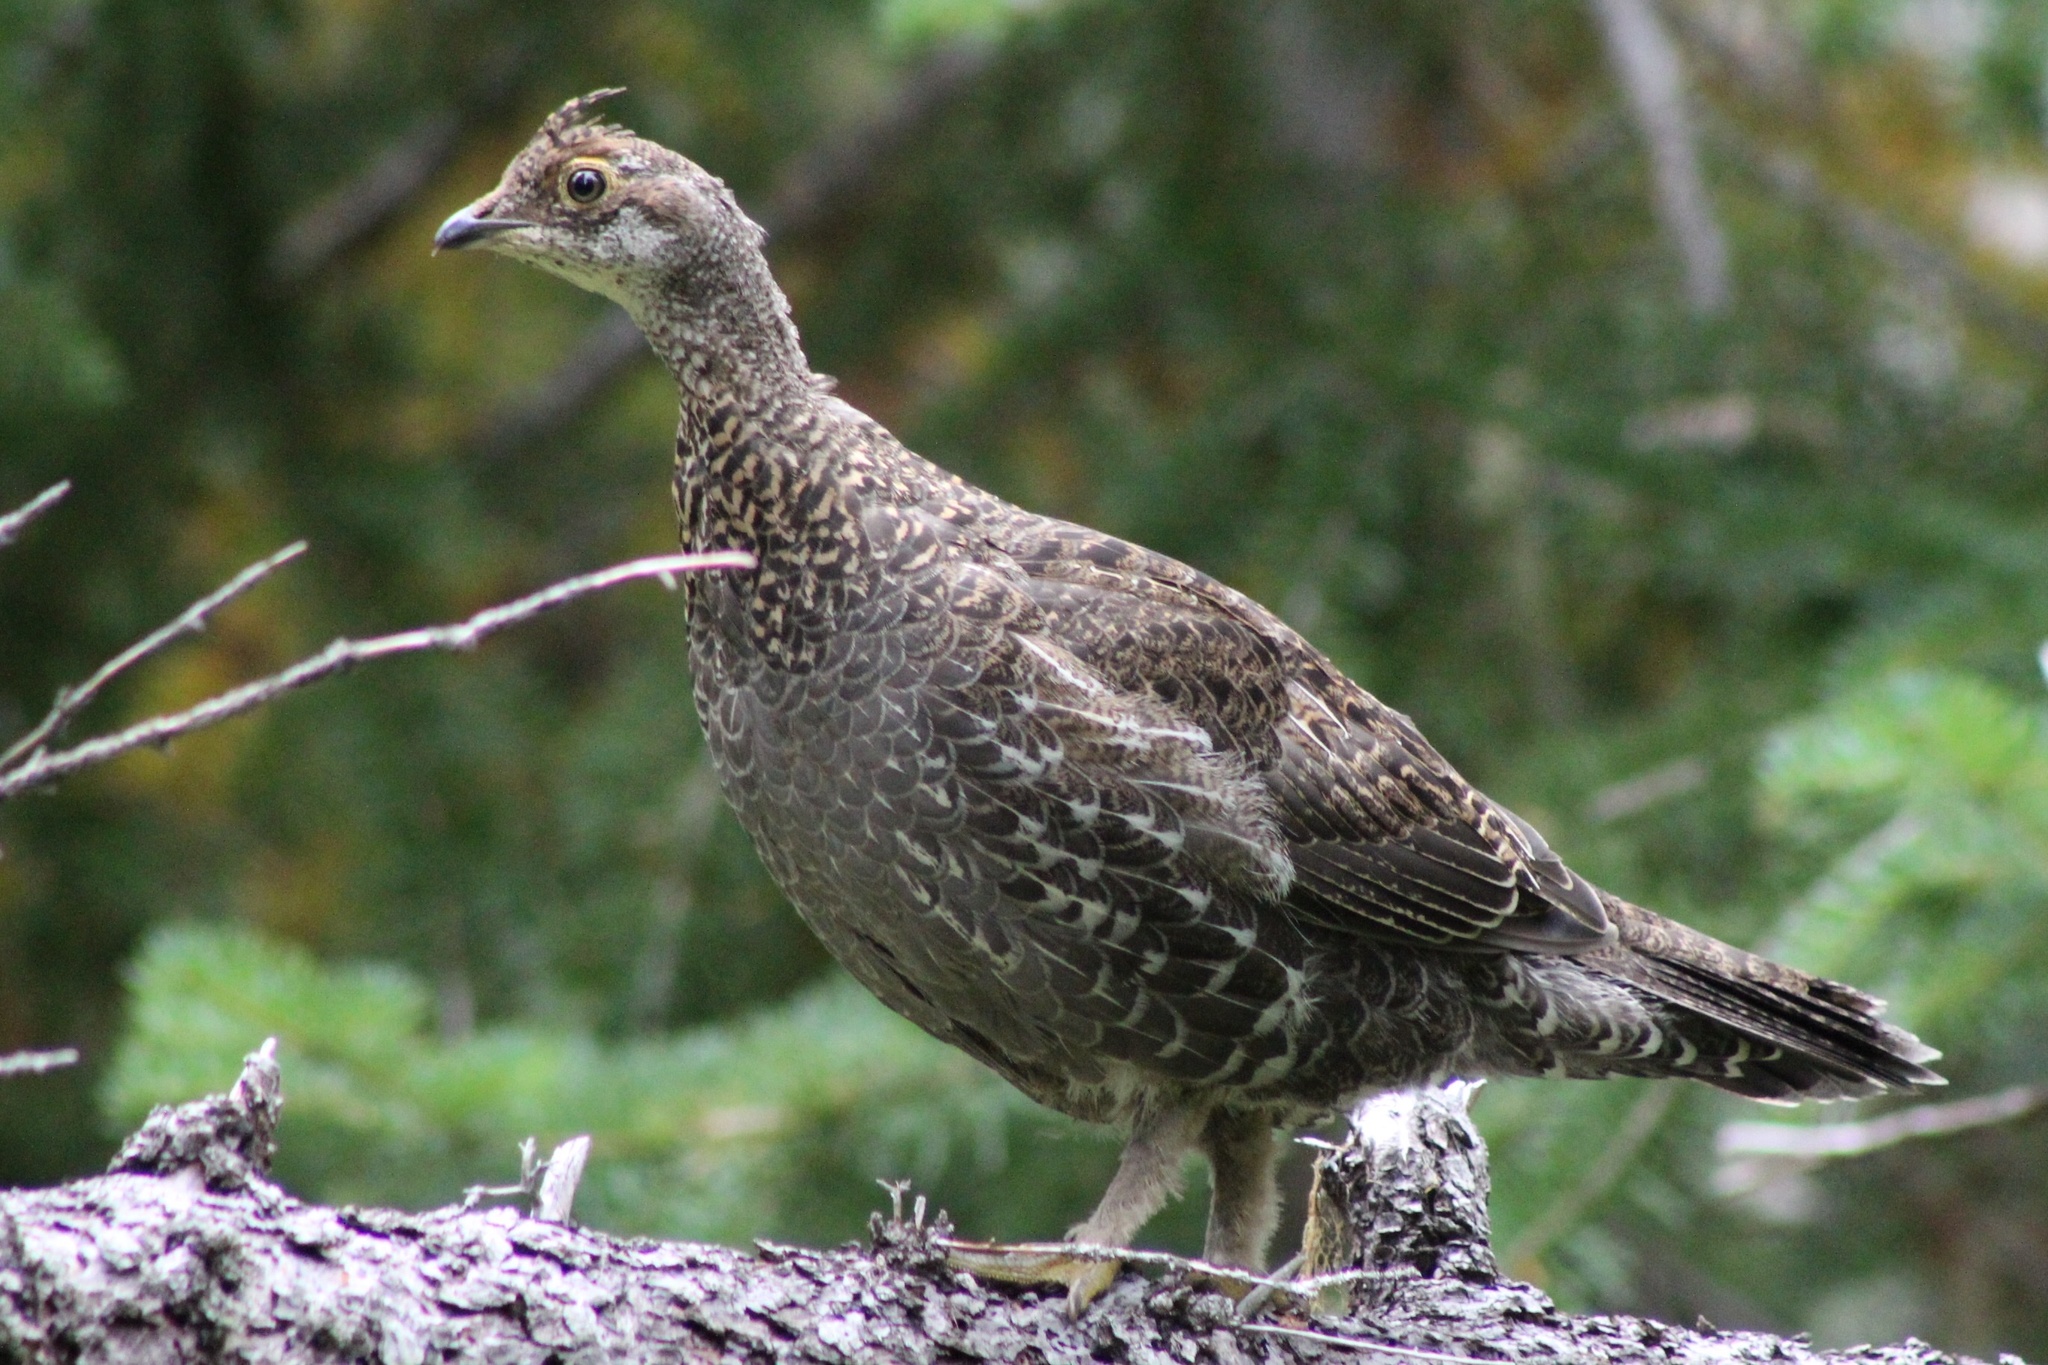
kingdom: Animalia
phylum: Chordata
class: Aves
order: Galliformes
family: Phasianidae
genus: Dendragapus
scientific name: Dendragapus fuliginosus
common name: Sooty grouse
